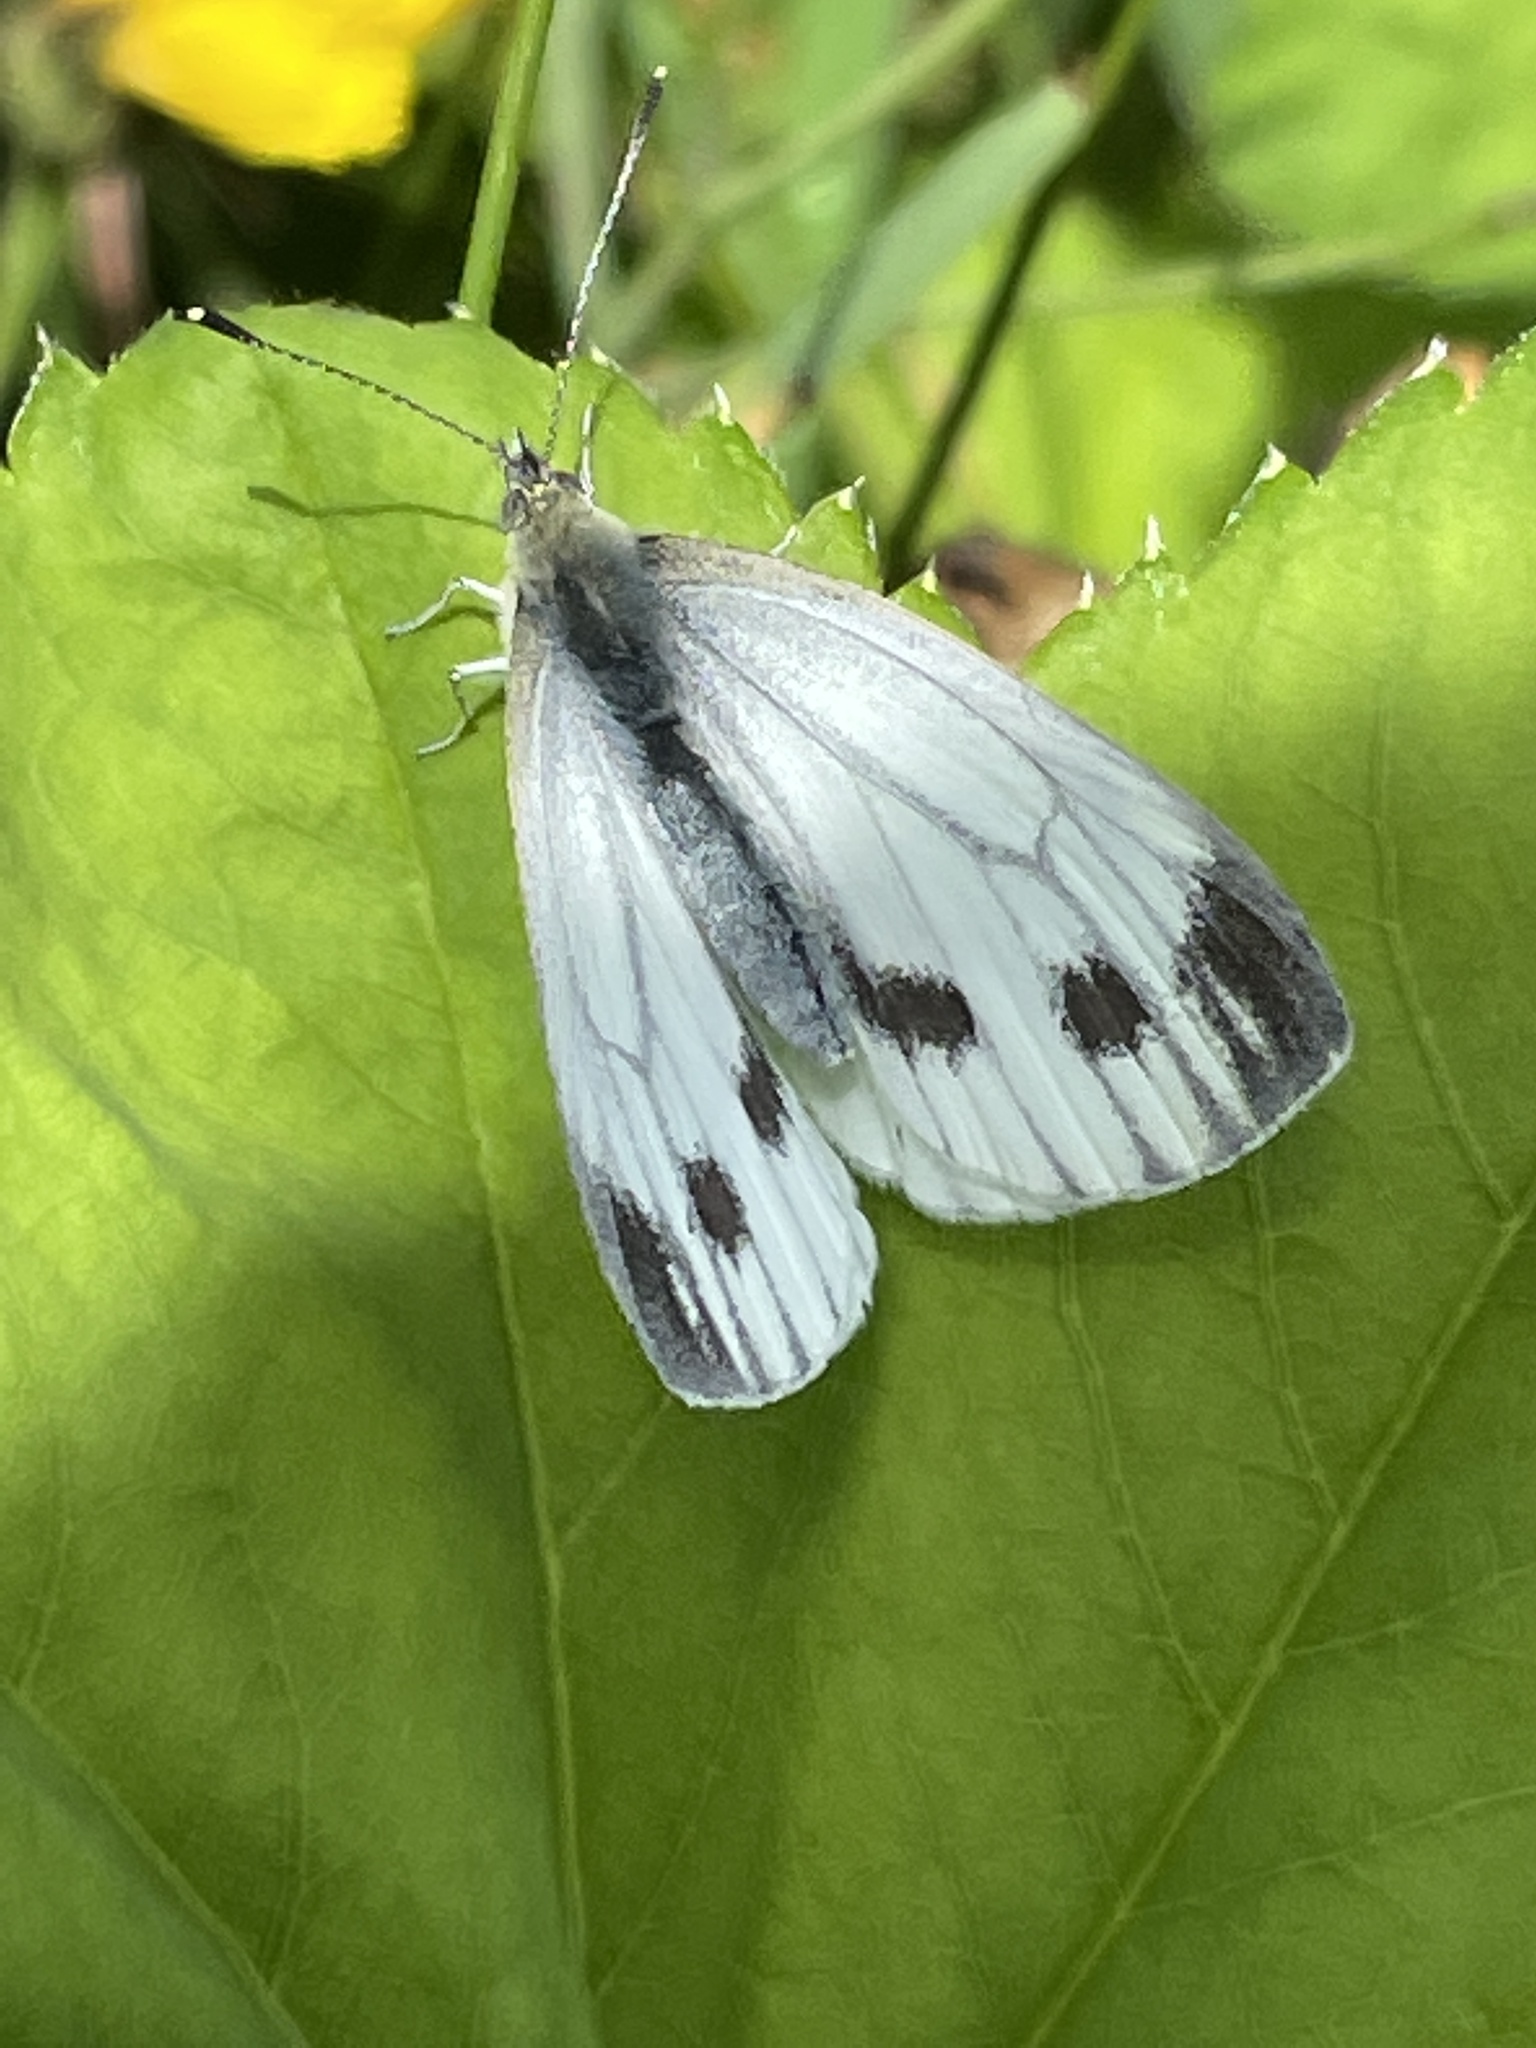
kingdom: Animalia
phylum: Arthropoda
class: Insecta
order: Lepidoptera
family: Pieridae
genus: Pieris
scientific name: Pieris napi
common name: Green-veined white
